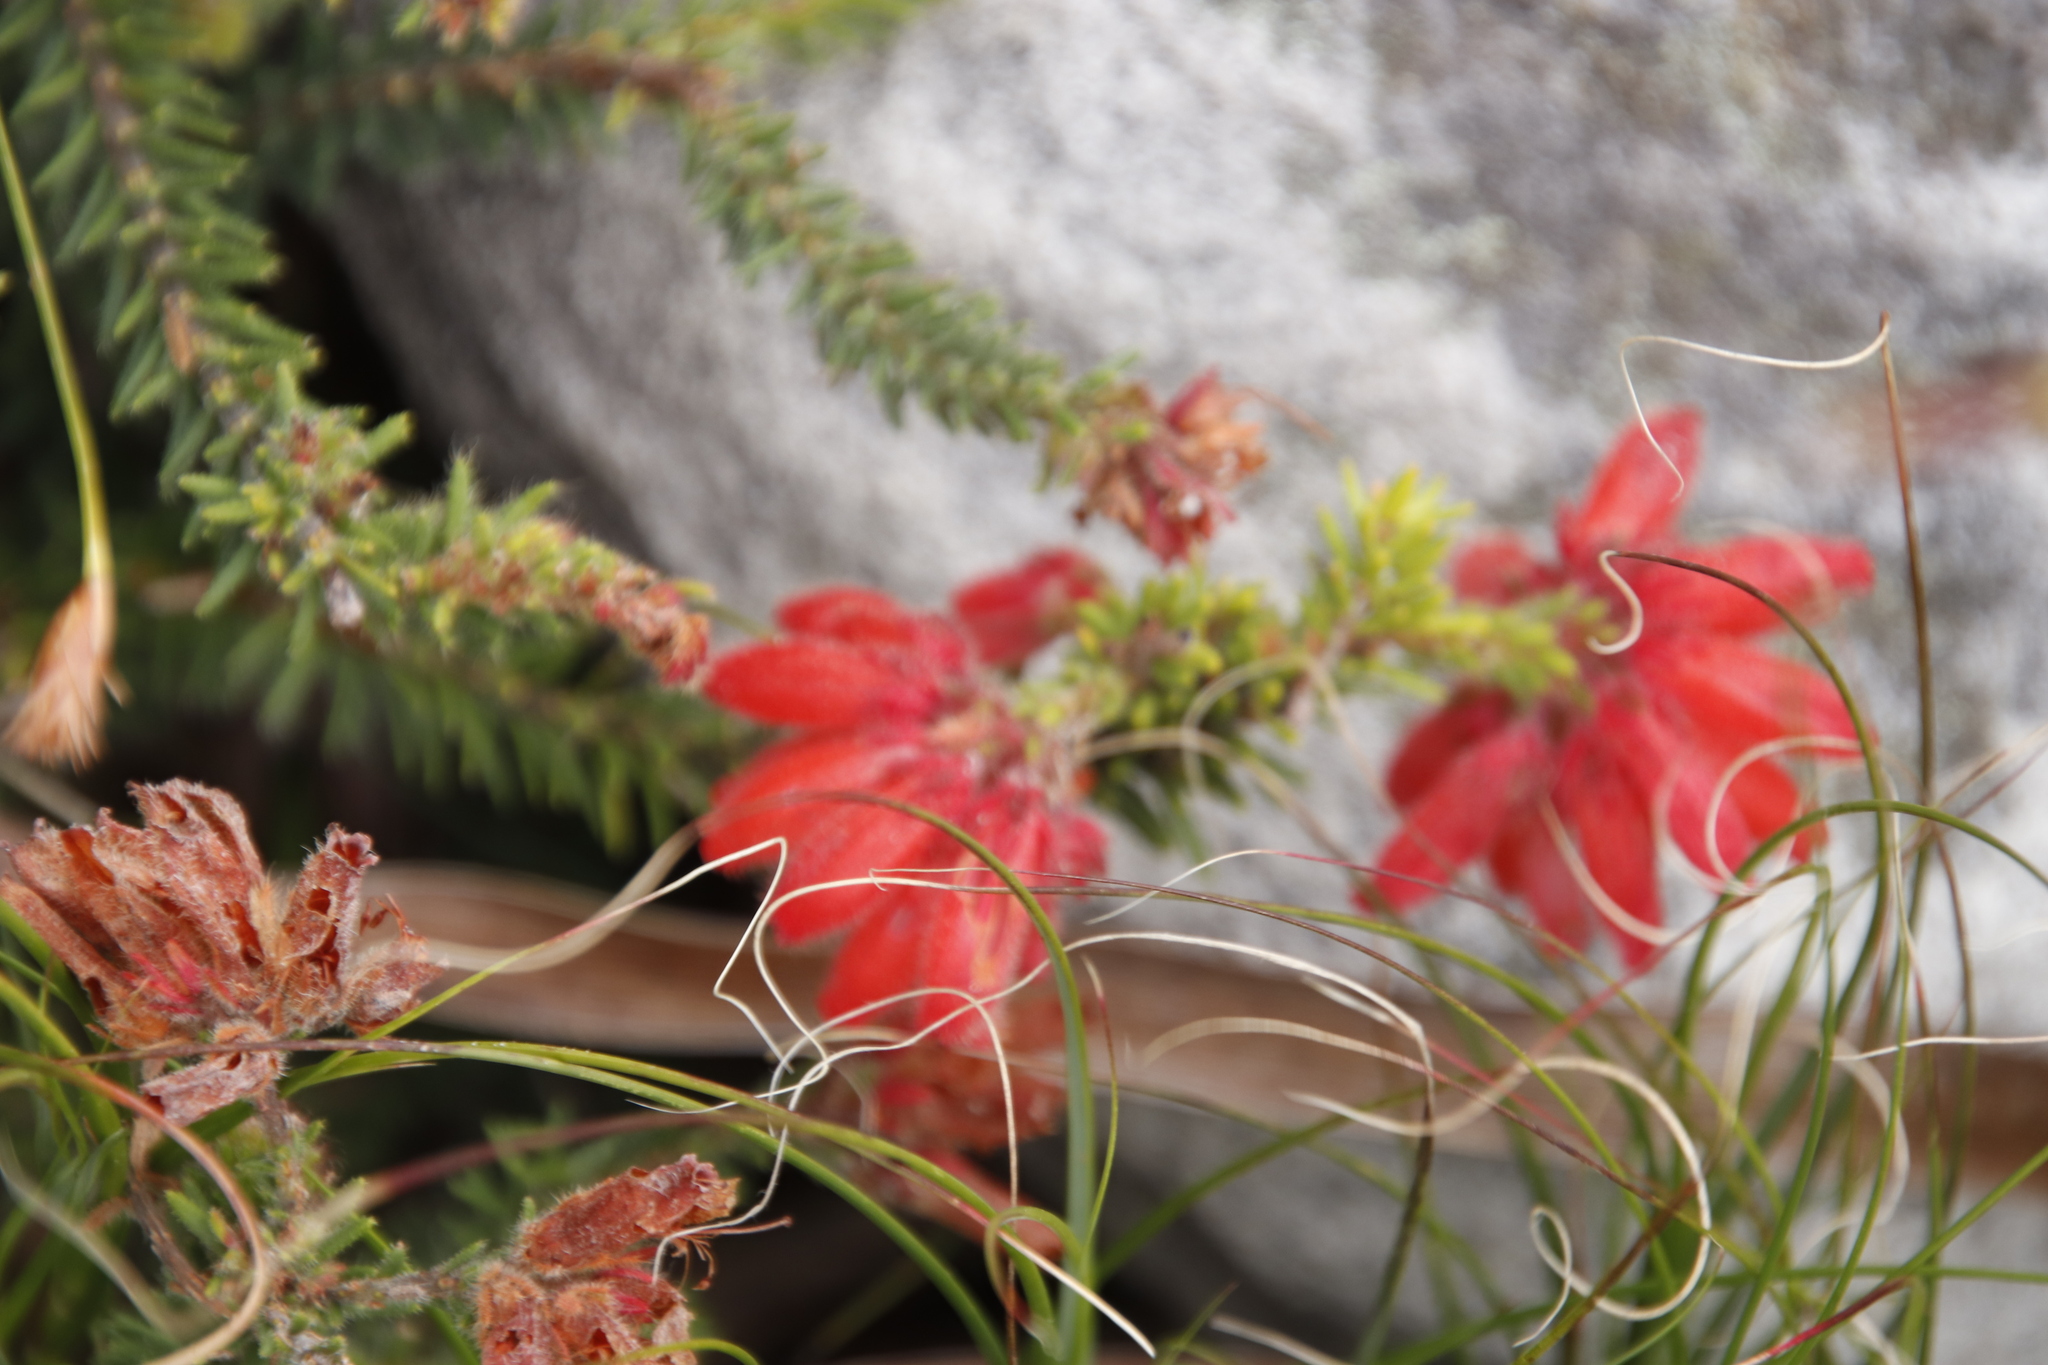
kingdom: Plantae
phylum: Tracheophyta
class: Magnoliopsida
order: Ericales
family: Ericaceae
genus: Erica
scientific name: Erica cerinthoides
